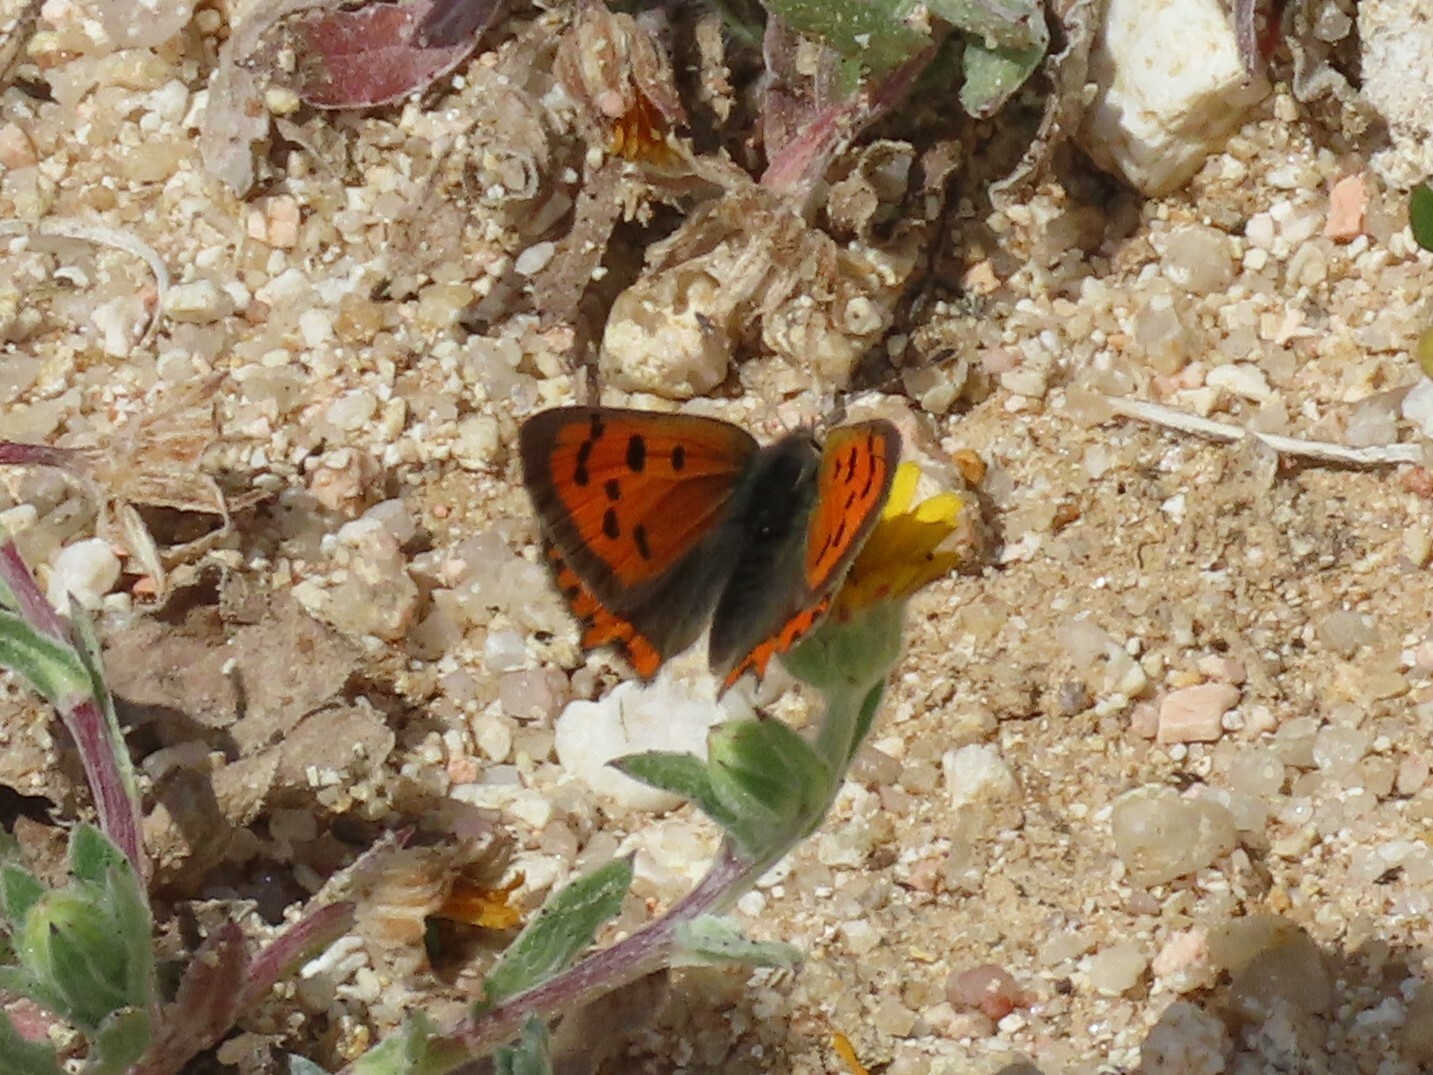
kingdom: Animalia
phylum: Arthropoda
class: Insecta
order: Lepidoptera
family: Lycaenidae
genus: Lycaena
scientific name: Lycaena phlaeas
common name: Small copper
